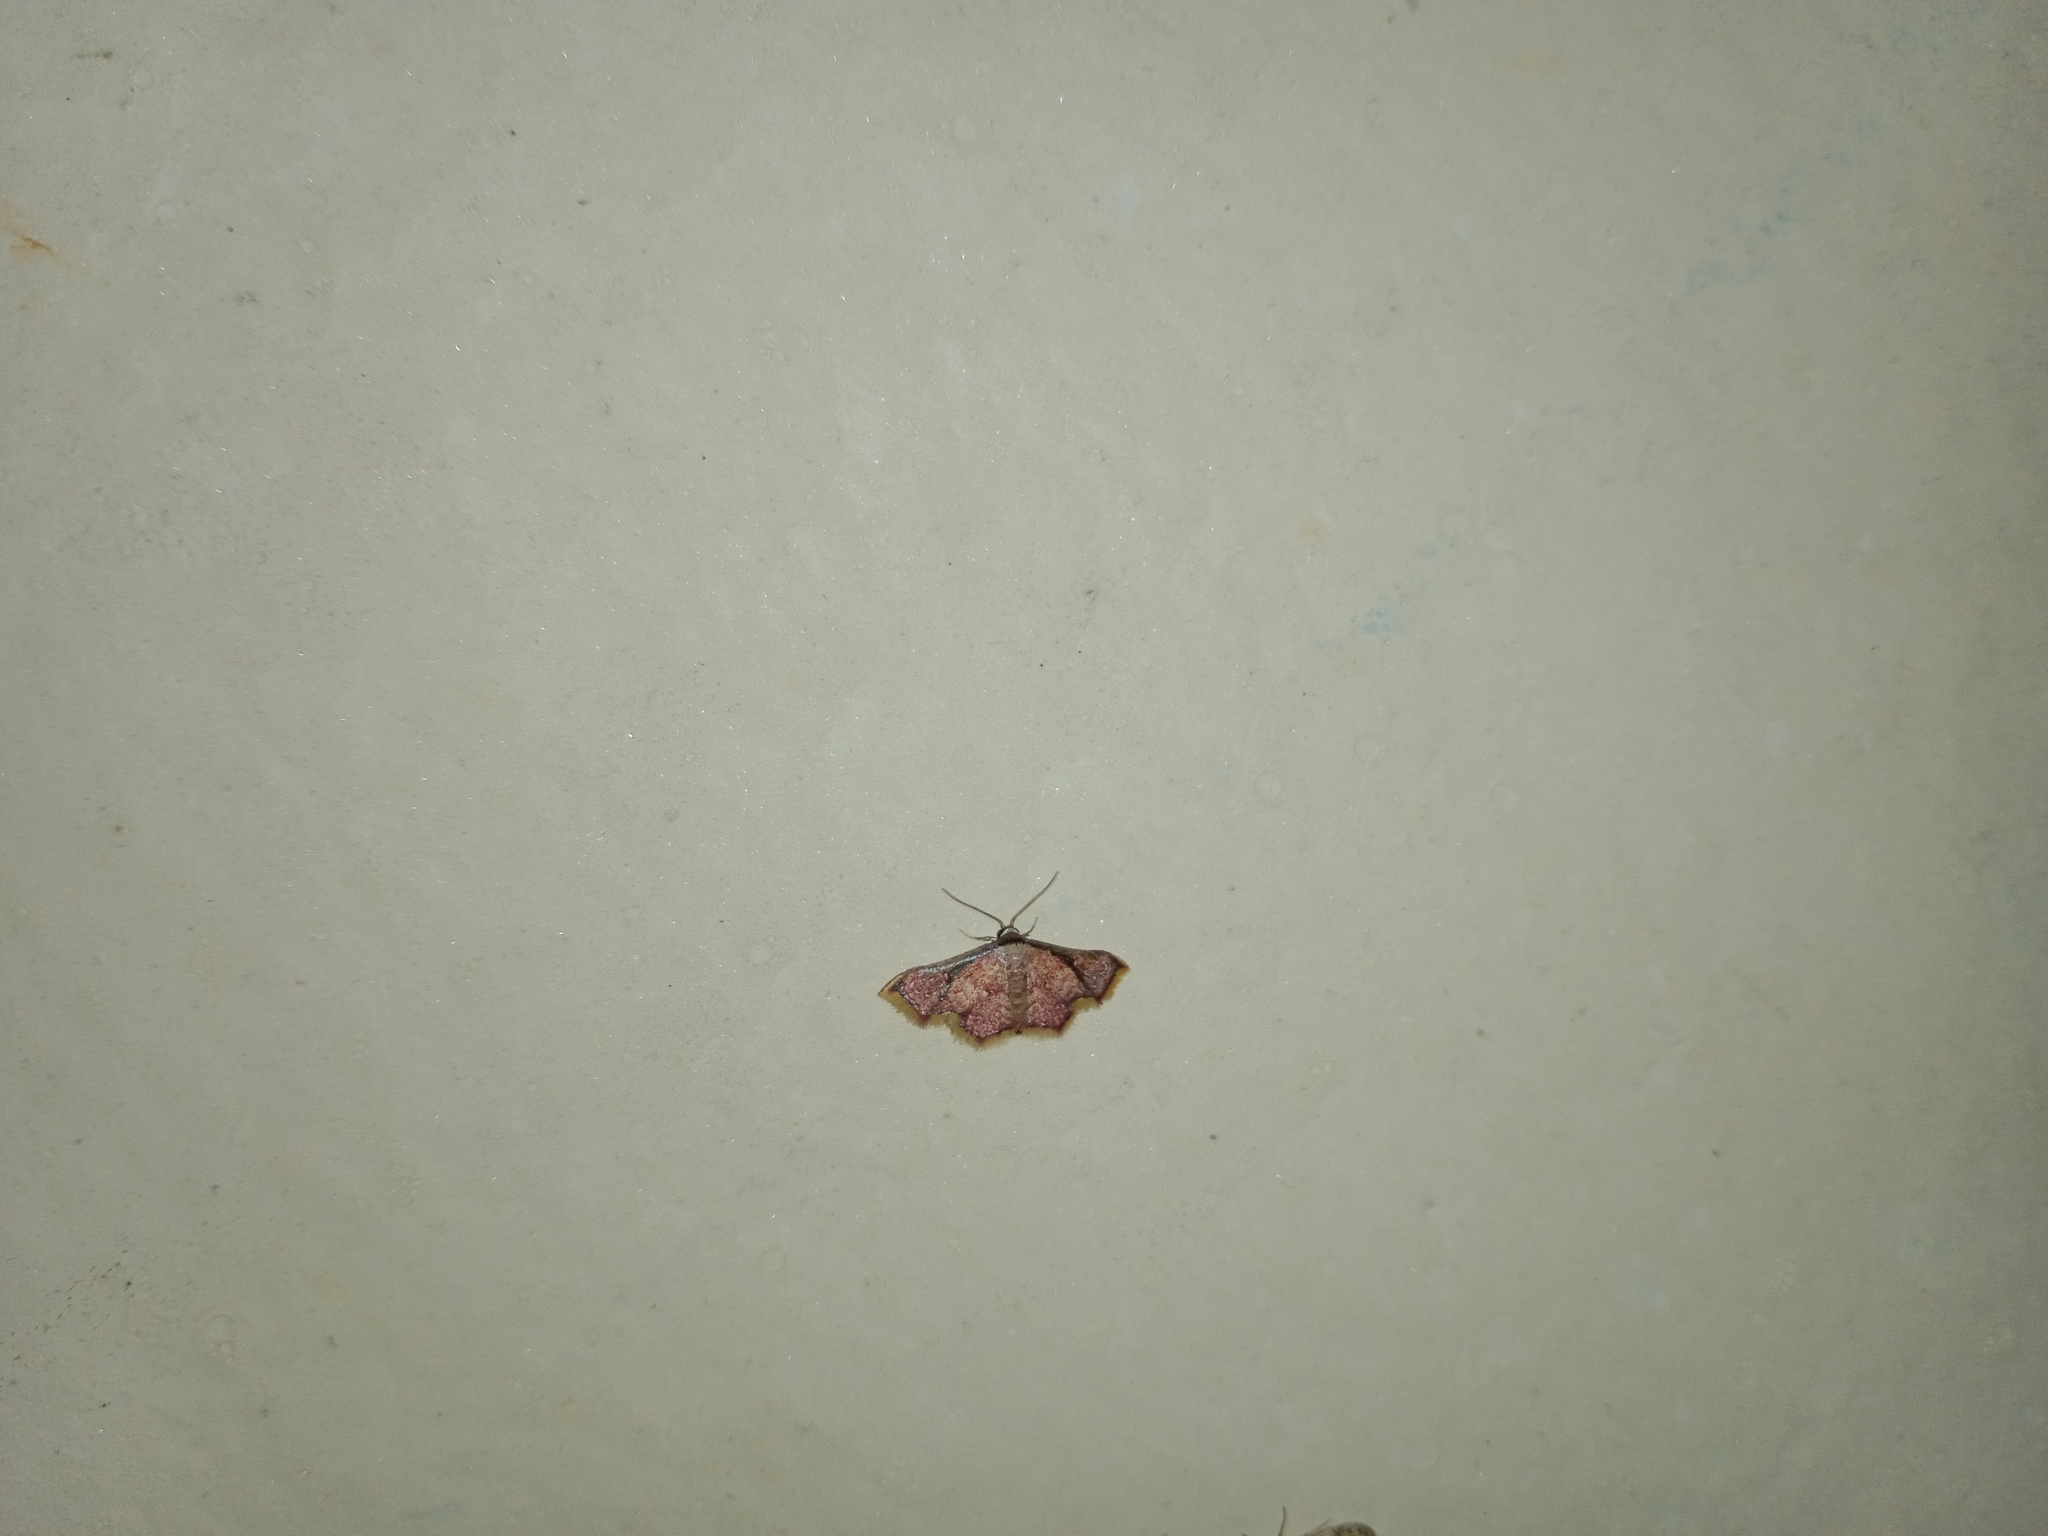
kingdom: Animalia
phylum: Arthropoda
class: Insecta
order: Lepidoptera
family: Noctuidae
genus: Enispa
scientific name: Enispa elataria
